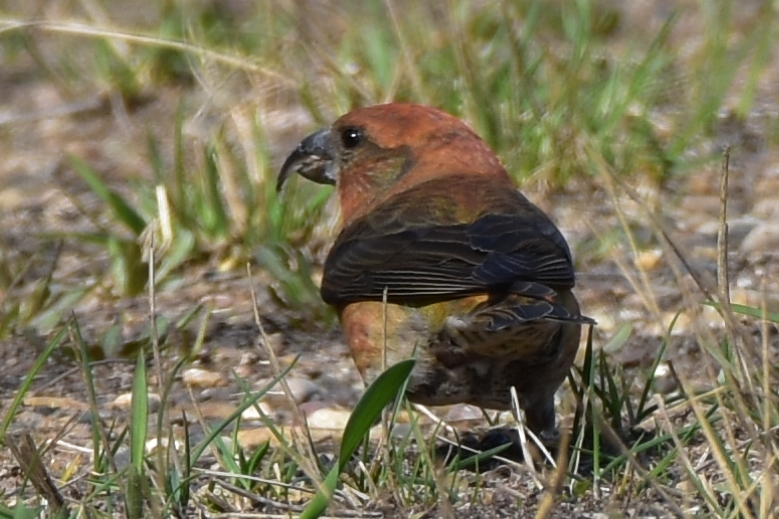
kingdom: Animalia
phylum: Chordata
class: Aves
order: Passeriformes
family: Fringillidae
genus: Loxia
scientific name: Loxia curvirostra
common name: Red crossbill
